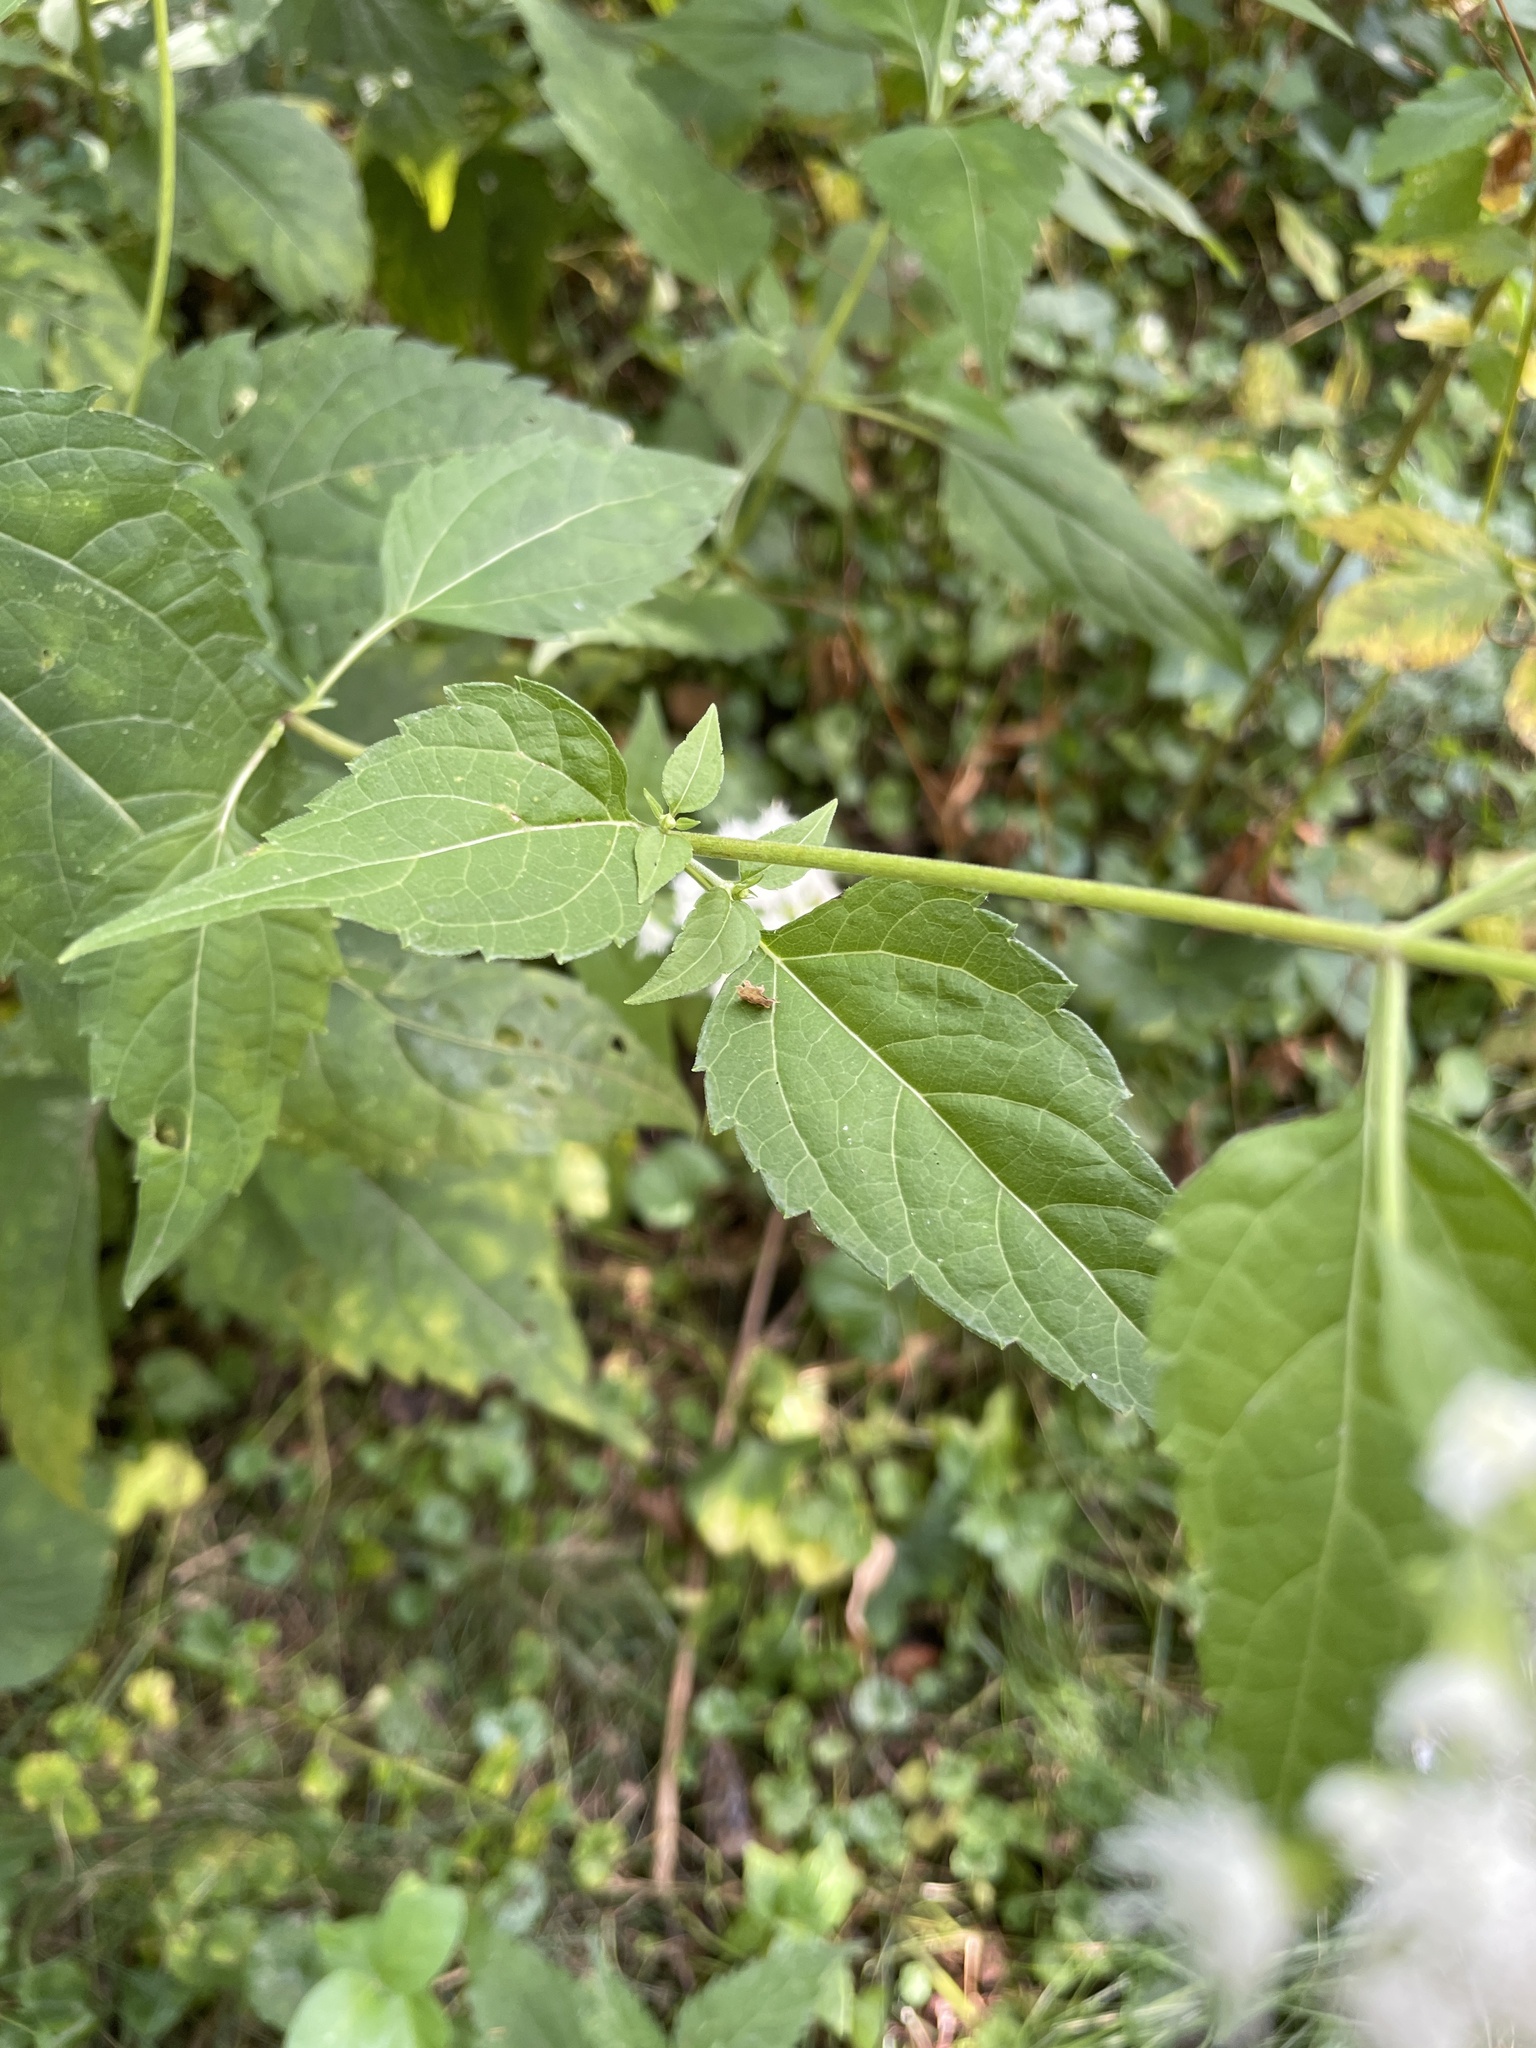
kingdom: Plantae
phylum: Tracheophyta
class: Magnoliopsida
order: Asterales
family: Asteraceae
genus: Ageratina
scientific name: Ageratina altissima
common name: White snakeroot
